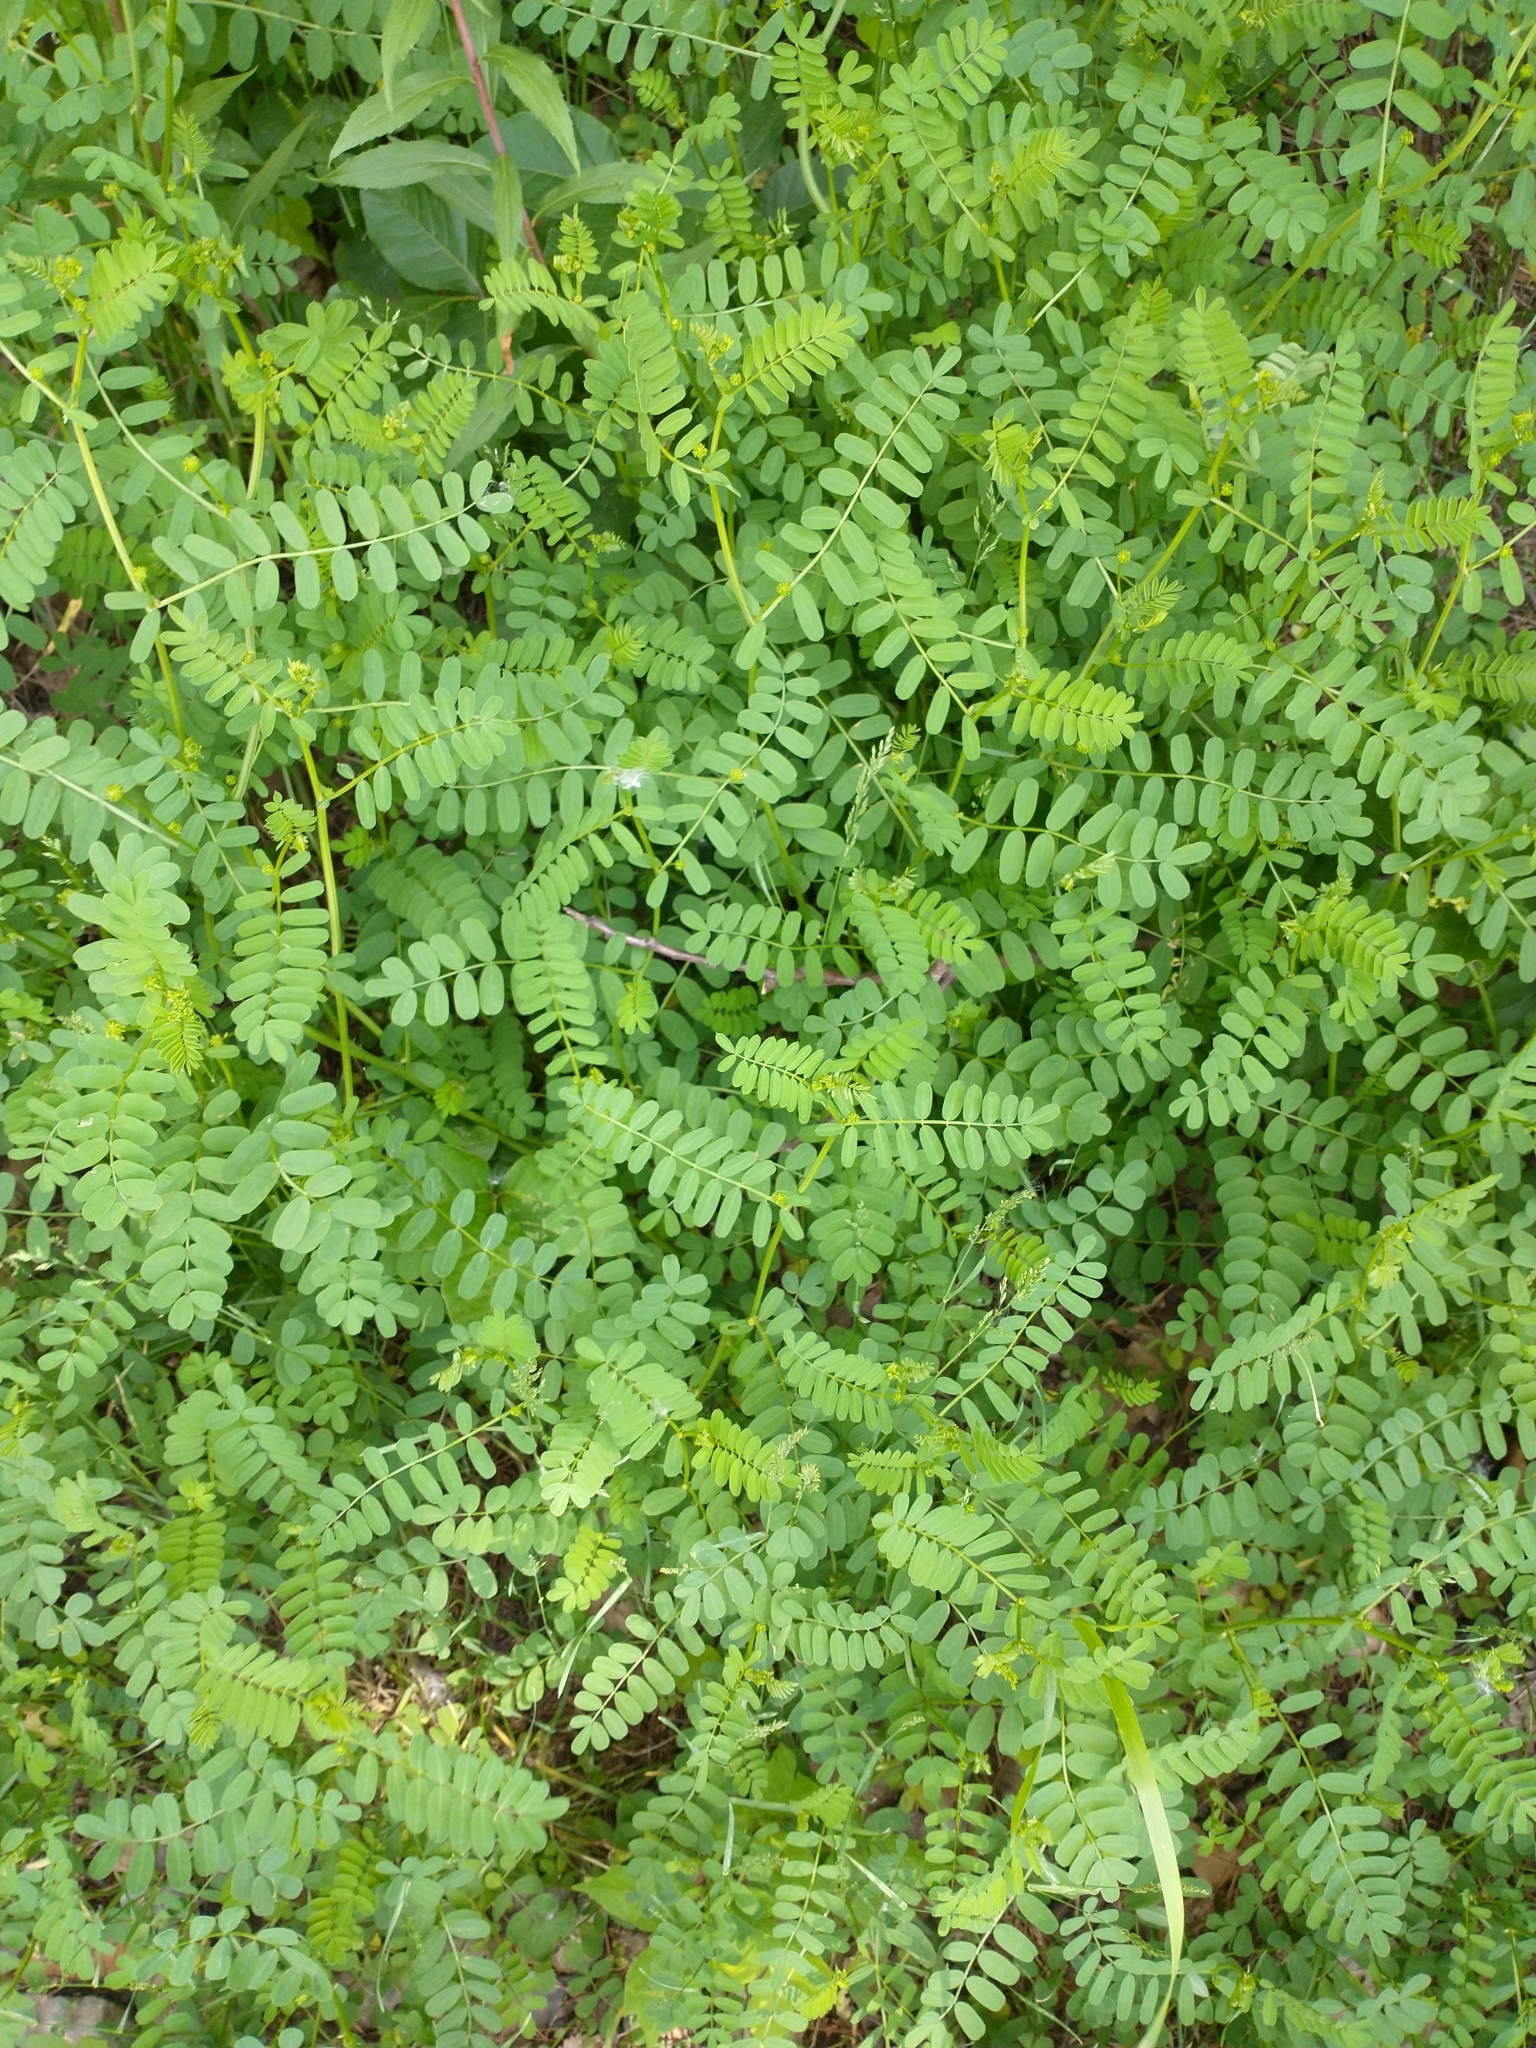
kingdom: Plantae
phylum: Tracheophyta
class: Magnoliopsida
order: Fabales
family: Fabaceae
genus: Coronilla
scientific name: Coronilla varia
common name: Crownvetch
